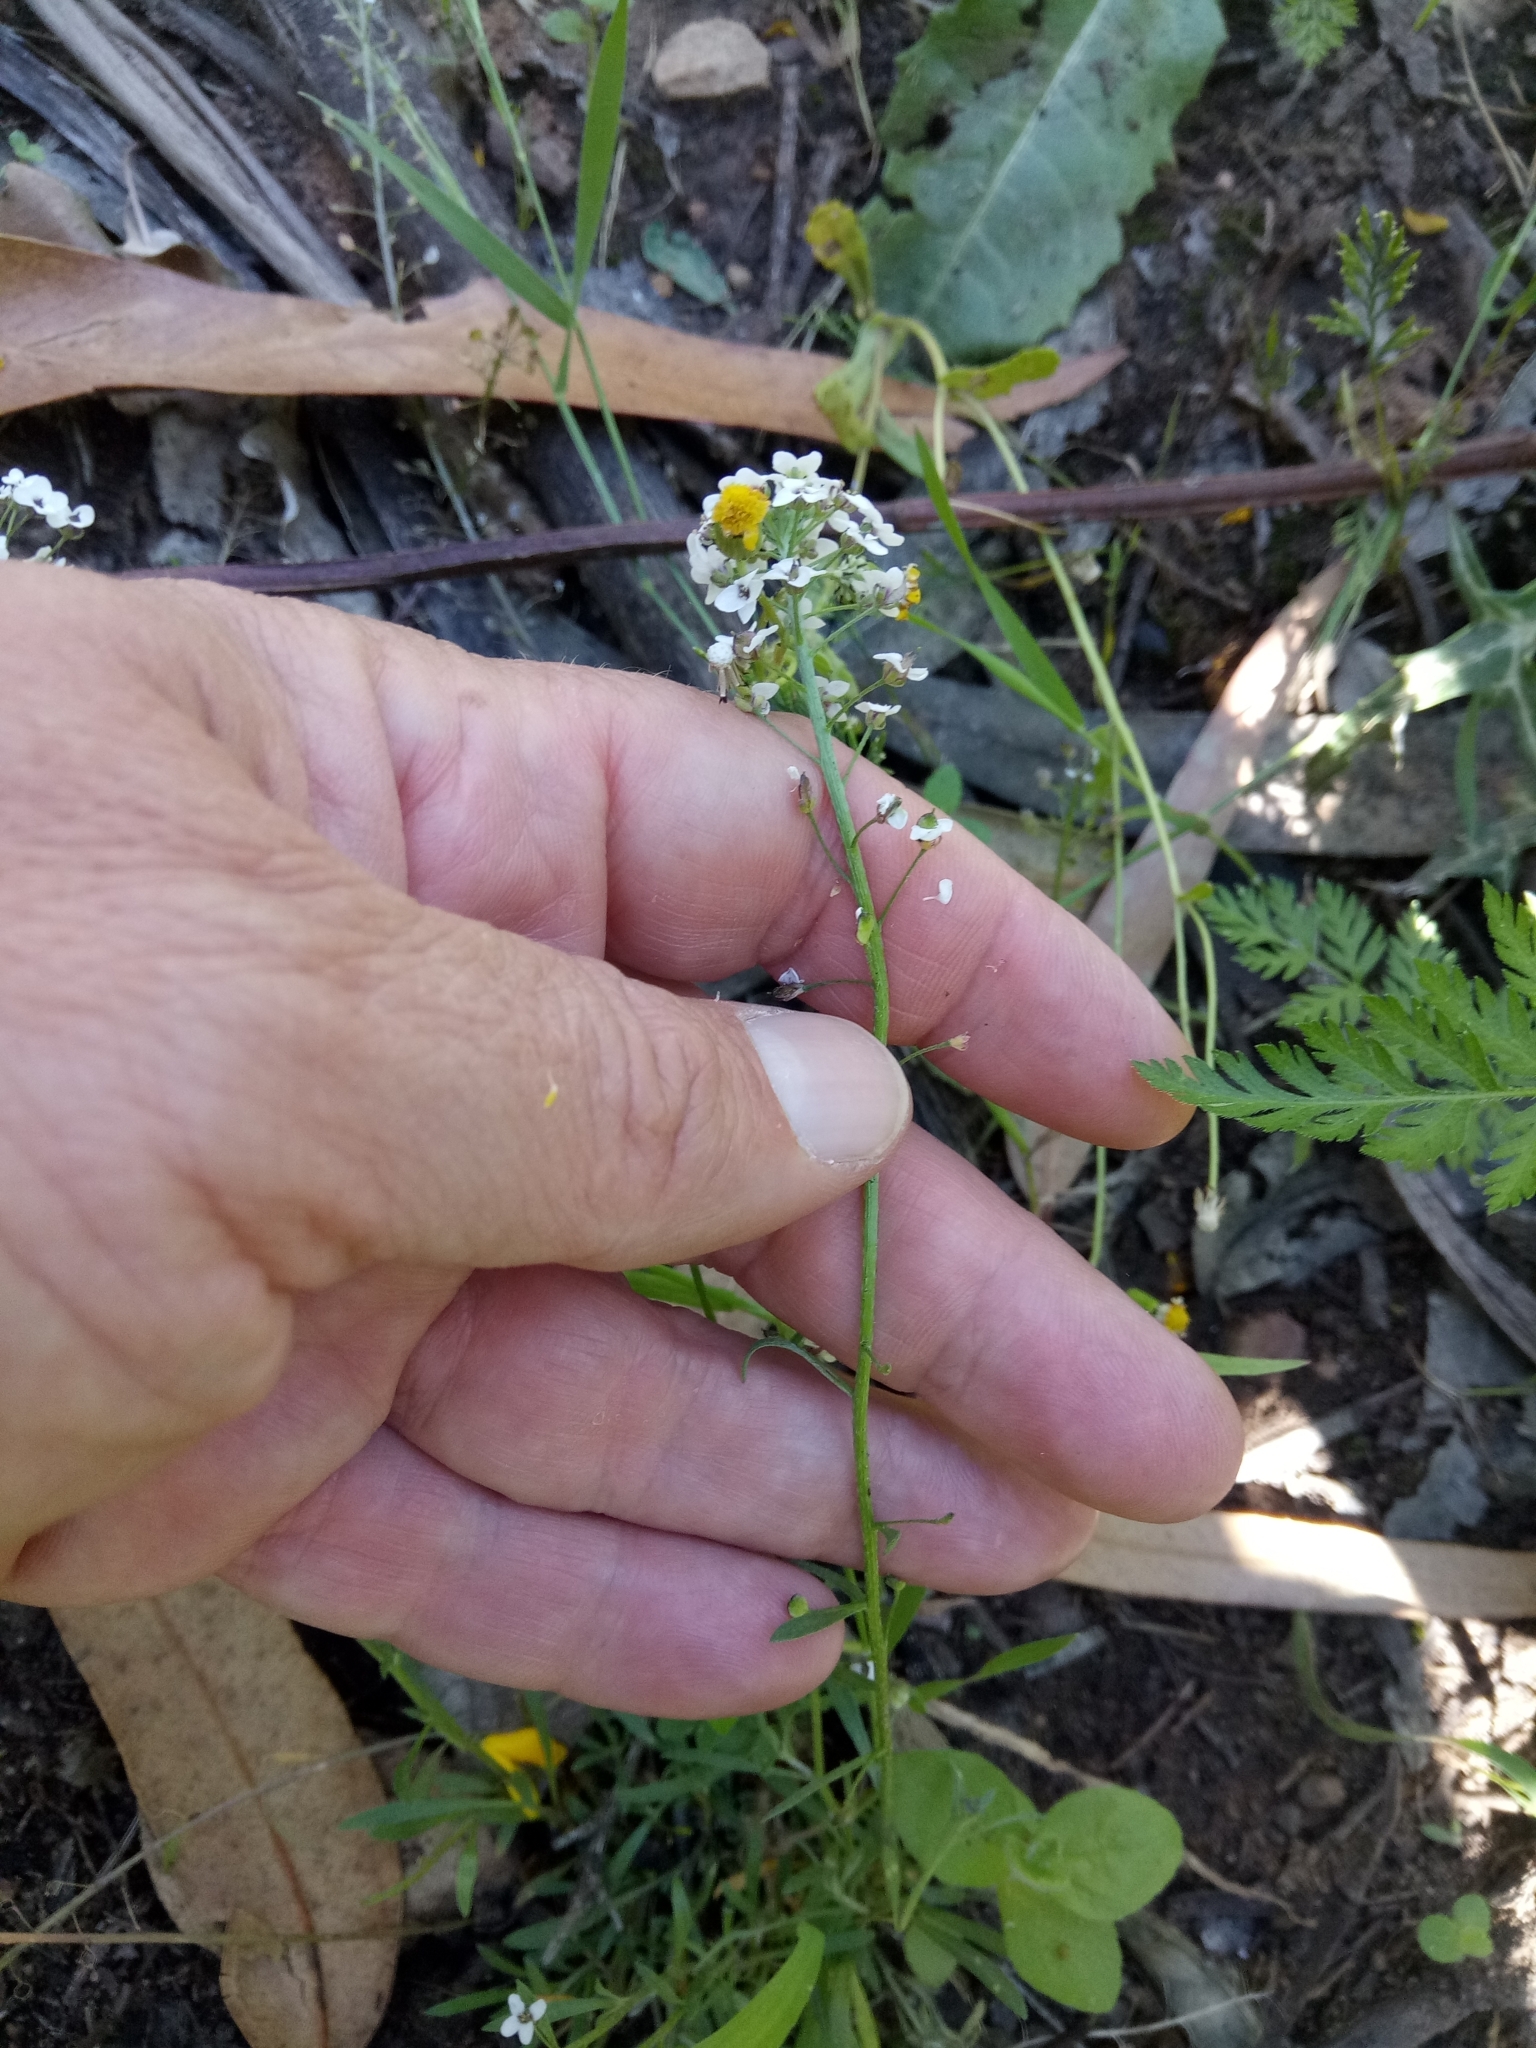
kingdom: Plantae
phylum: Tracheophyta
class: Magnoliopsida
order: Brassicales
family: Brassicaceae
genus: Lobularia
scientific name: Lobularia maritima
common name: Sweet alison
